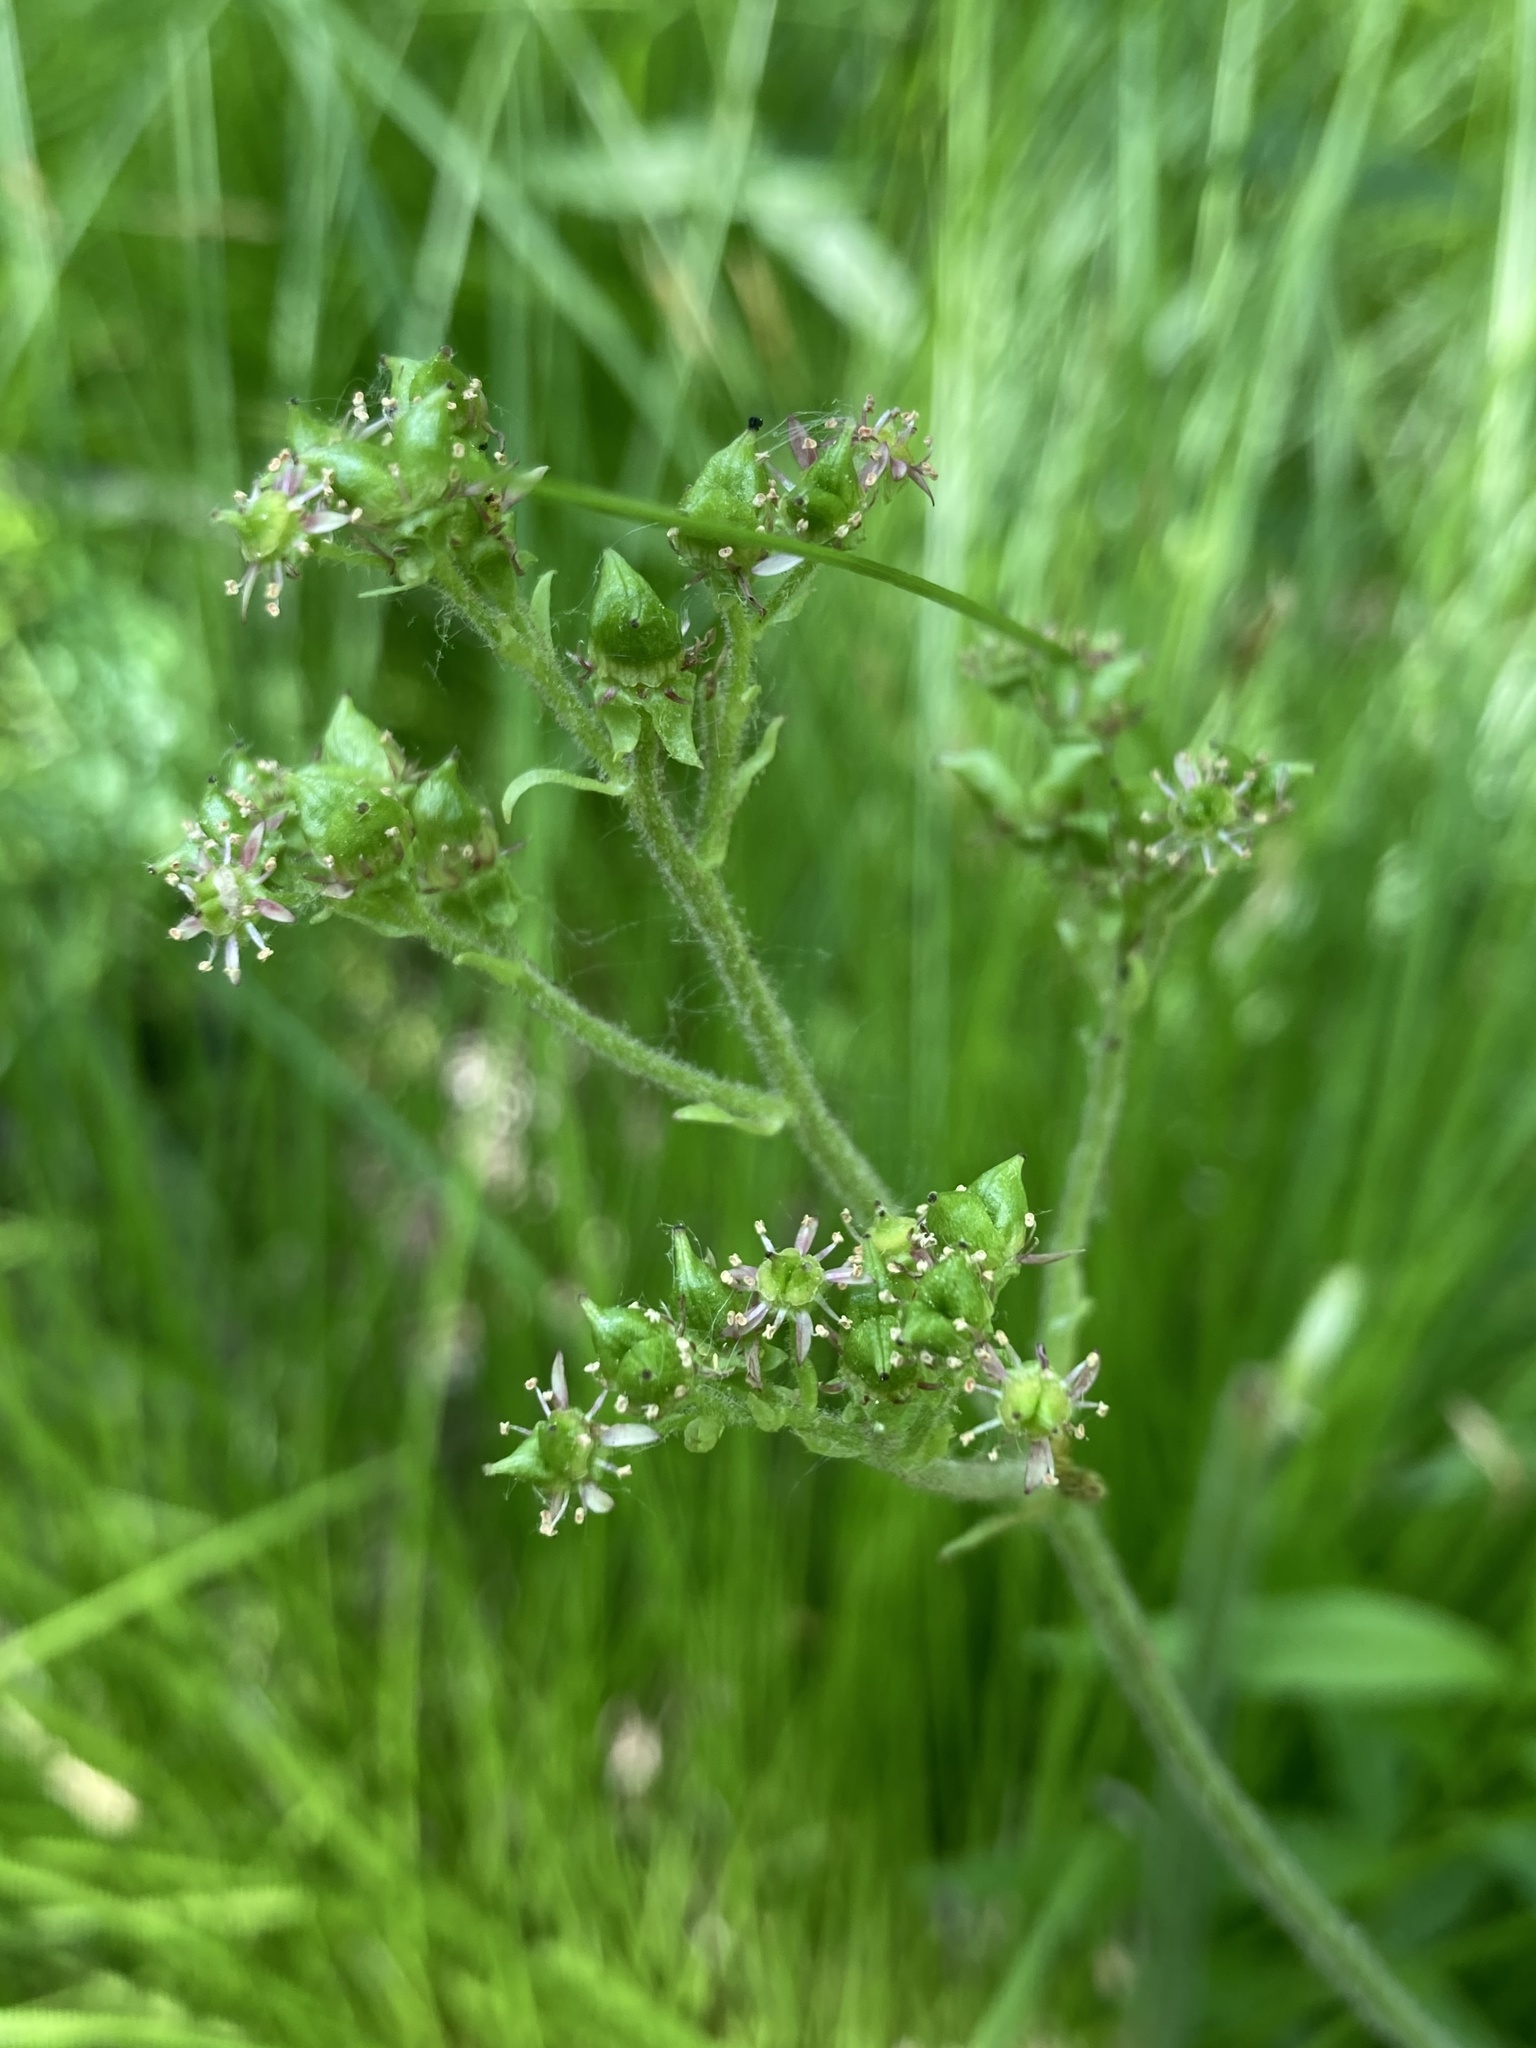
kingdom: Plantae
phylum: Tracheophyta
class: Magnoliopsida
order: Saxifragales
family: Saxifragaceae
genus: Micranthes
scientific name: Micranthes pensylvanica
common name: Marsh saxifrage
